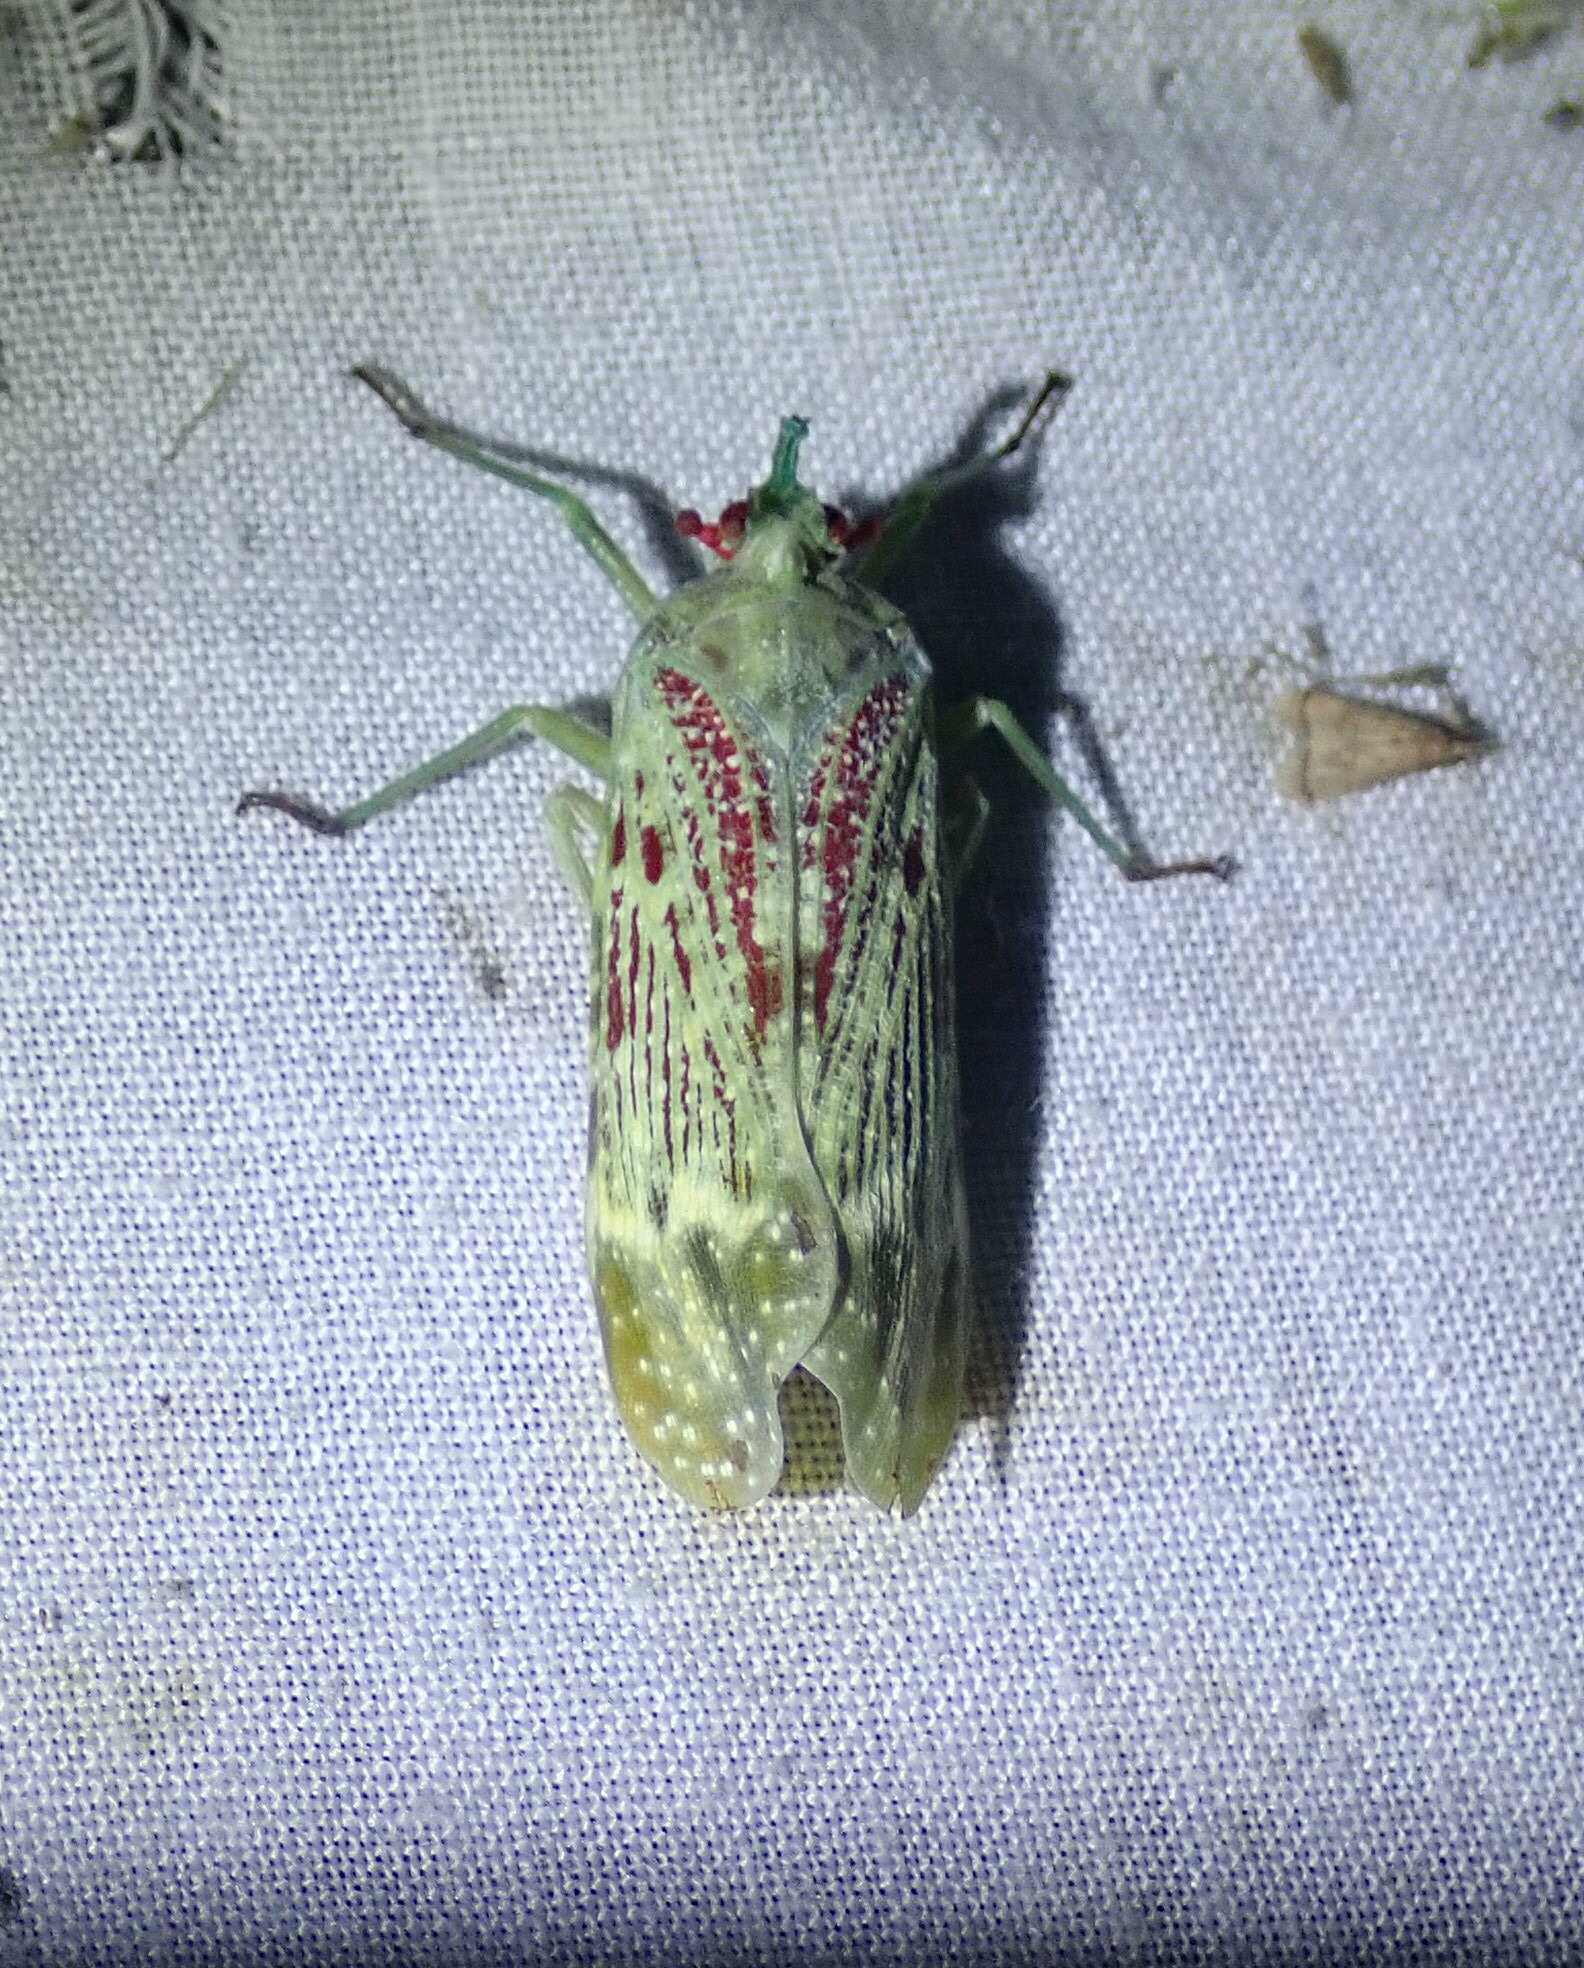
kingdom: Animalia
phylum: Arthropoda
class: Insecta
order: Hemiptera
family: Fulgoridae
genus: Enchophora
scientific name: Enchophora rosacea
